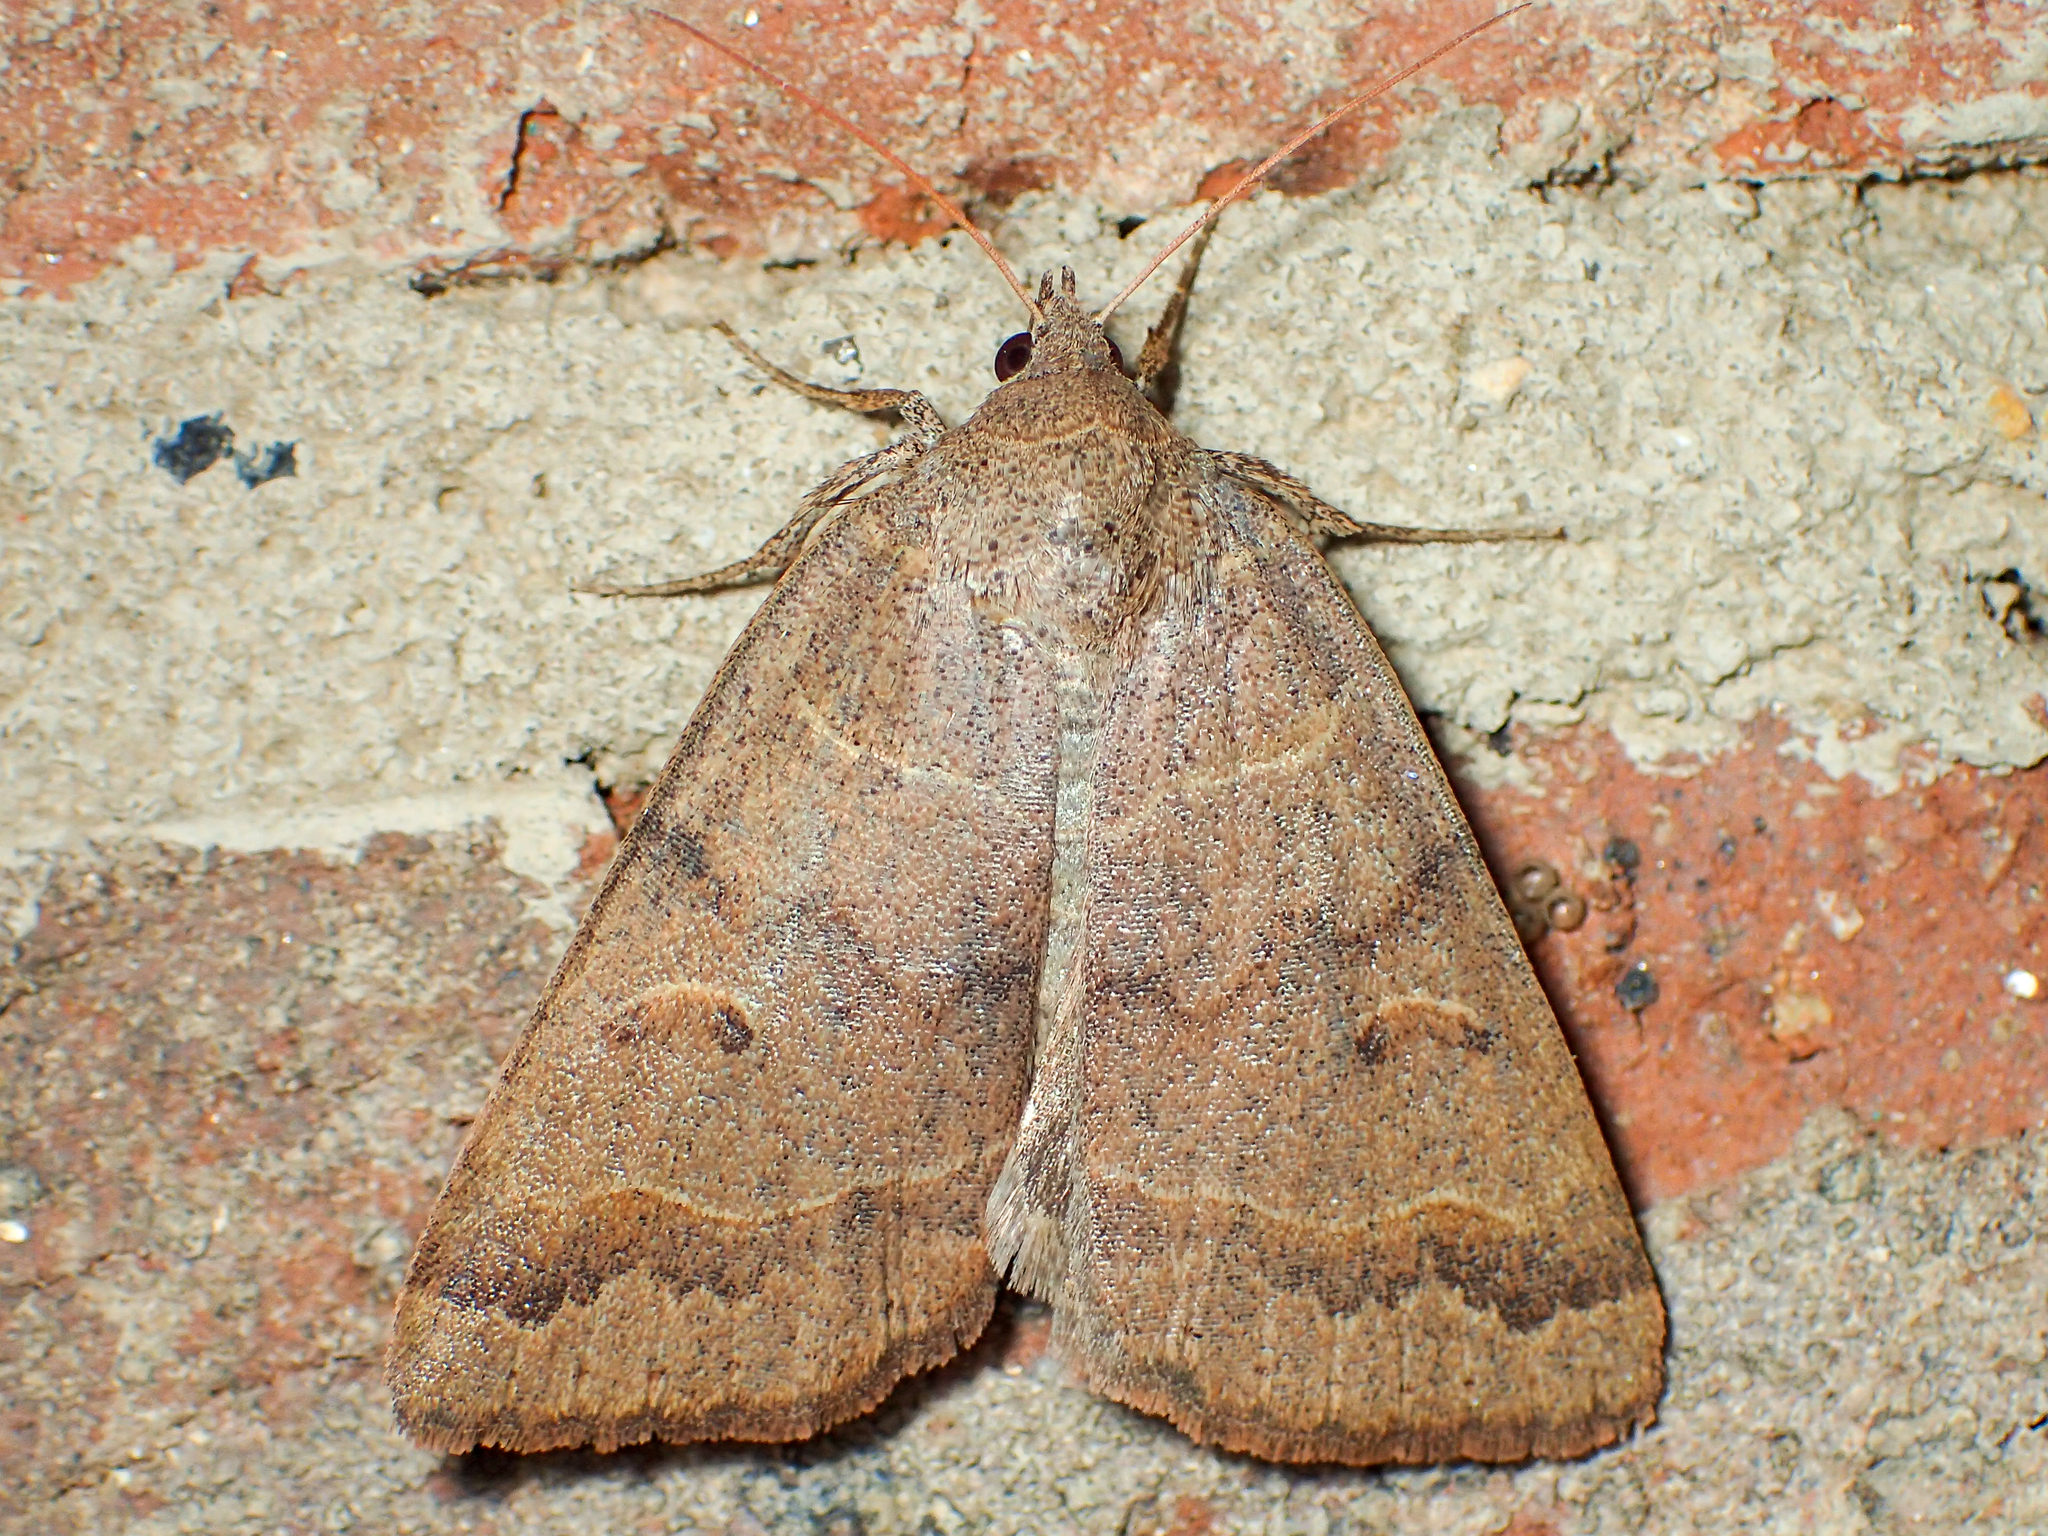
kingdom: Animalia
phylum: Arthropoda
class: Insecta
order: Lepidoptera
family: Erebidae
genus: Phoberia
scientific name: Phoberia atomaris
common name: Common oak moth
